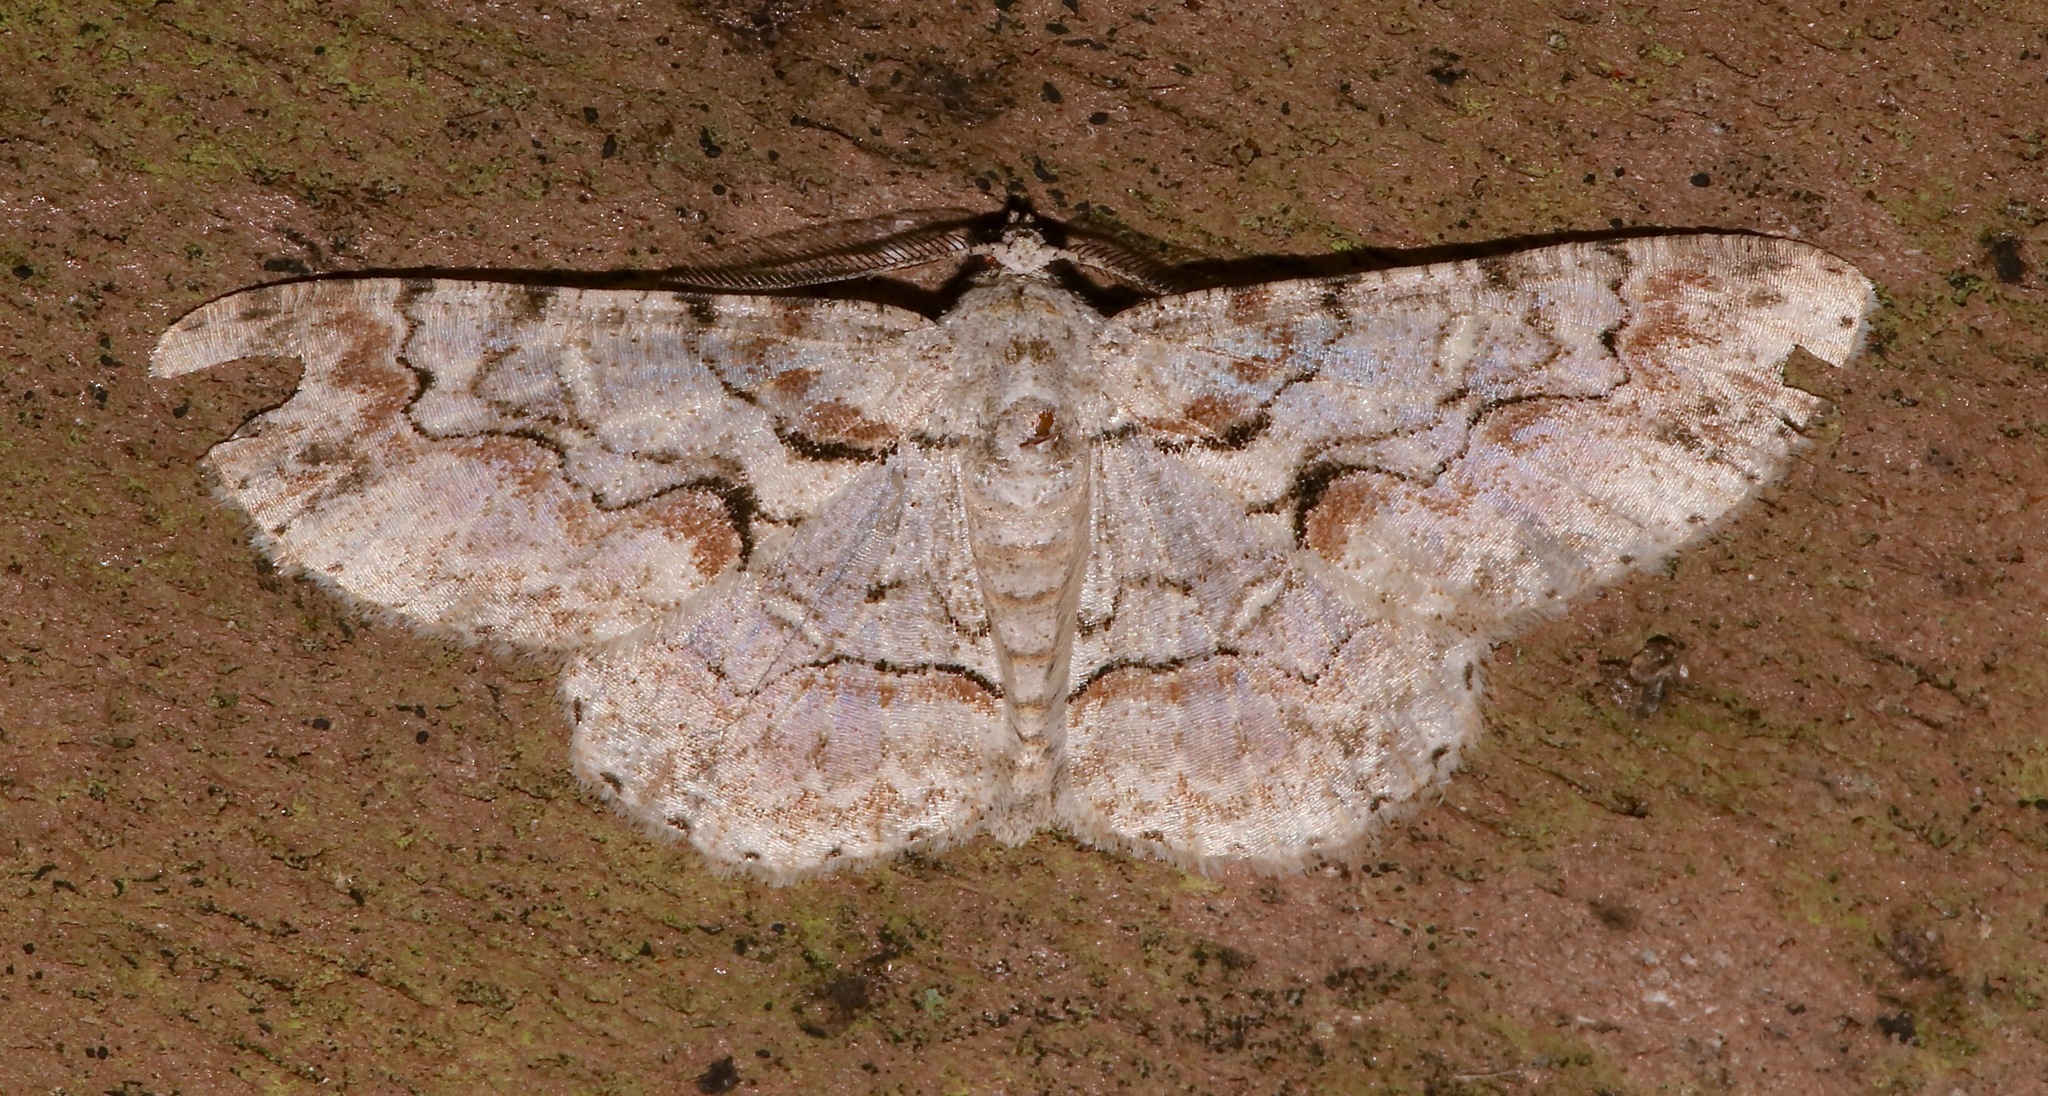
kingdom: Animalia
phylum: Arthropoda
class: Insecta
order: Lepidoptera
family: Geometridae
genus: Iridopsis
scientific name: Iridopsis defectaria
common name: Brown-shaded gray
